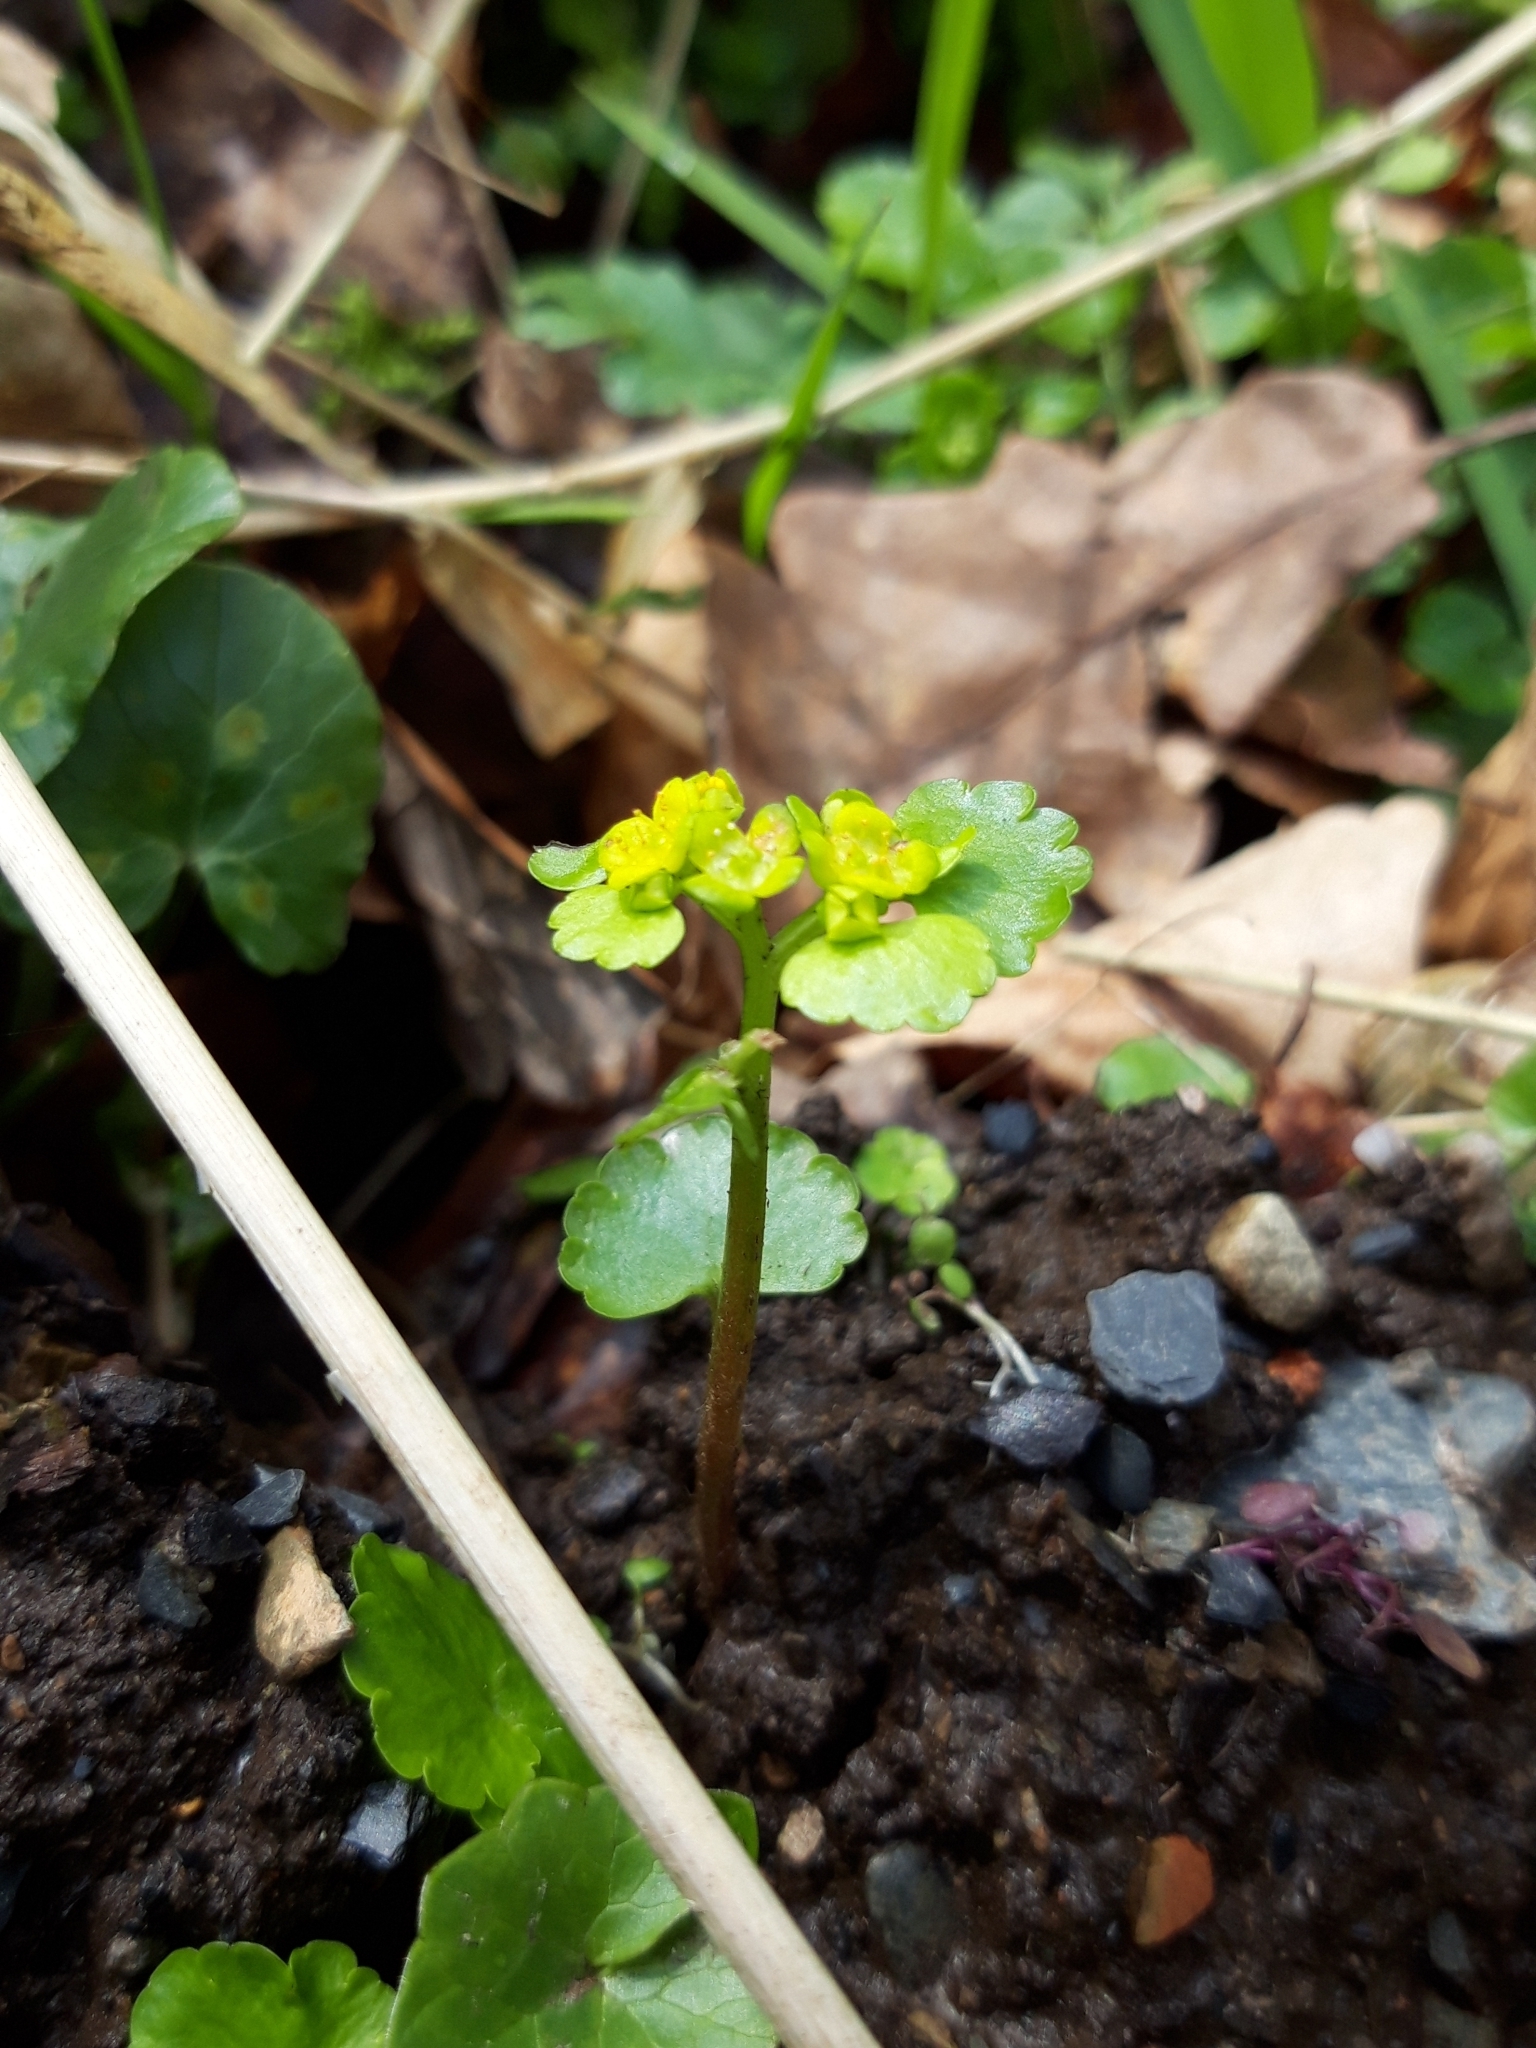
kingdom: Plantae
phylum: Tracheophyta
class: Magnoliopsida
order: Saxifragales
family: Saxifragaceae
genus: Chrysosplenium
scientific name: Chrysosplenium alternifolium
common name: Alternate-leaved golden-saxifrage
